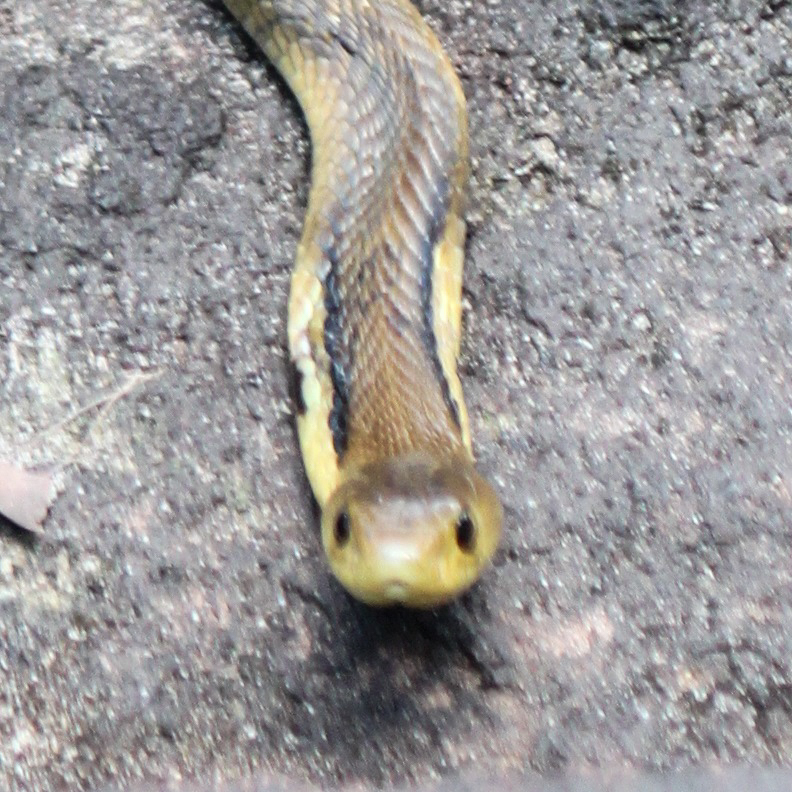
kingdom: Animalia
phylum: Chordata
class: Squamata
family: Elapidae
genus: Naja
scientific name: Naja siamensis
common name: Indo-chinese spitting cobra
